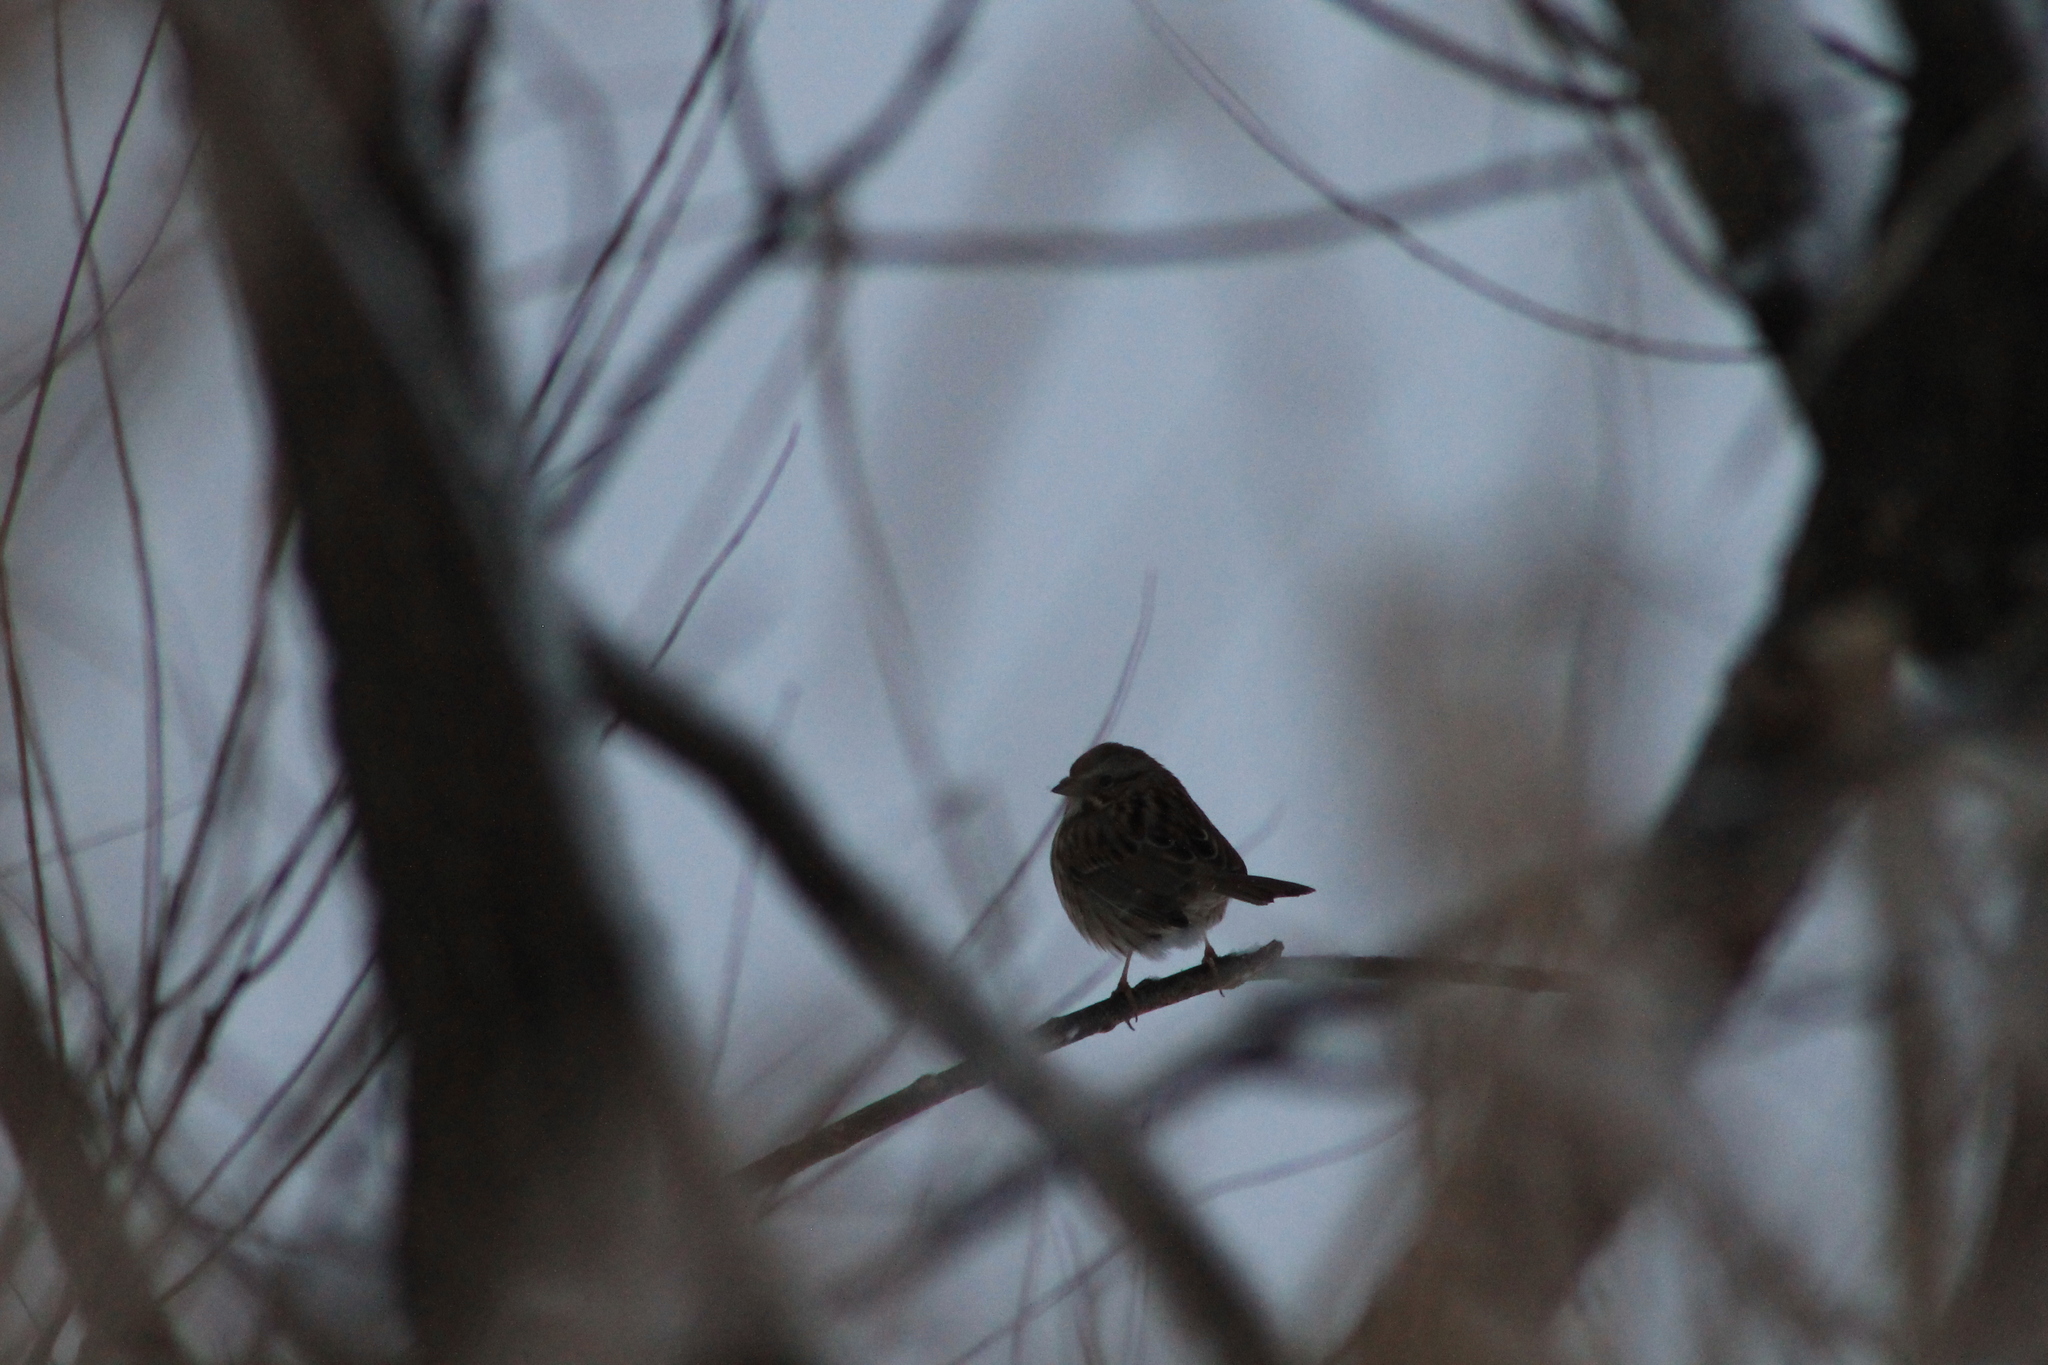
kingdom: Animalia
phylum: Chordata
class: Aves
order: Passeriformes
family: Passerellidae
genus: Melospiza
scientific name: Melospiza melodia
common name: Song sparrow
